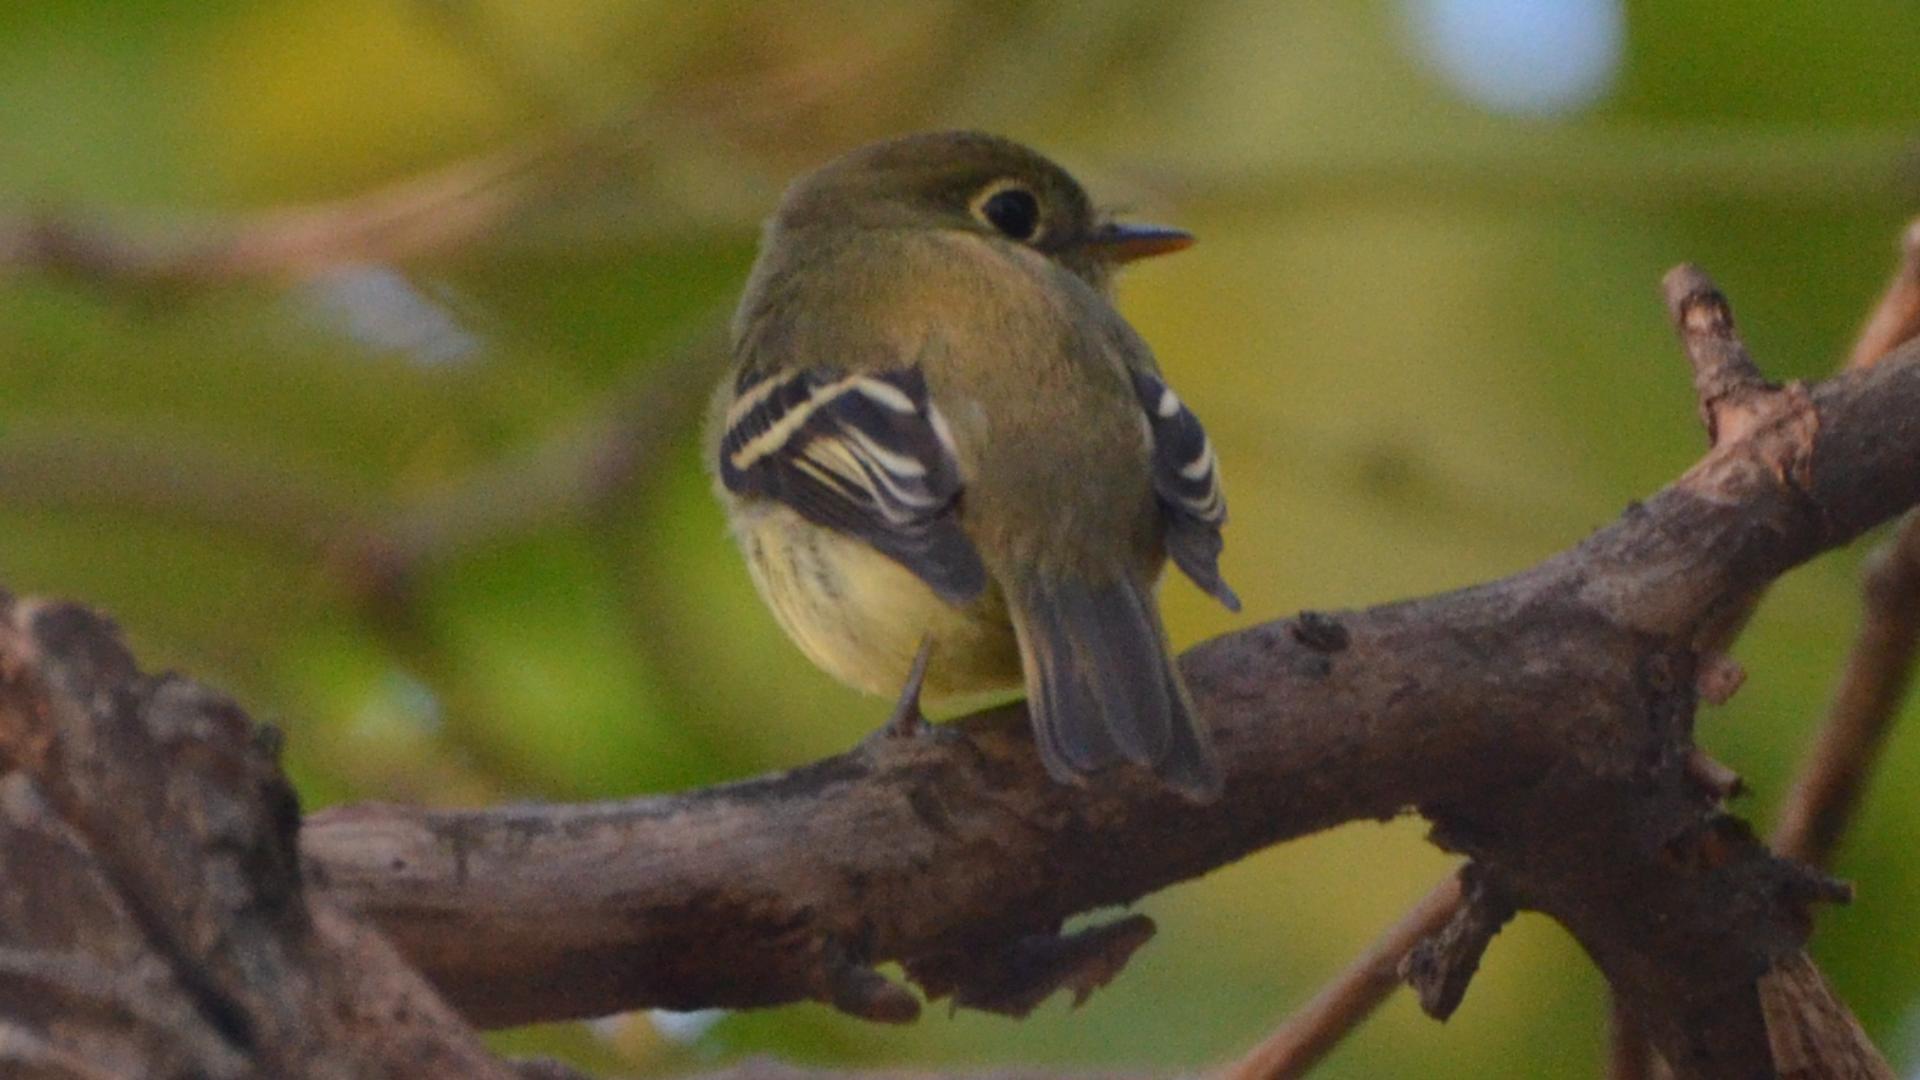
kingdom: Animalia
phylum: Chordata
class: Aves
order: Passeriformes
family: Tyrannidae
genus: Empidonax
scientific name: Empidonax flaviventris
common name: Yellow-bellied flycatcher
